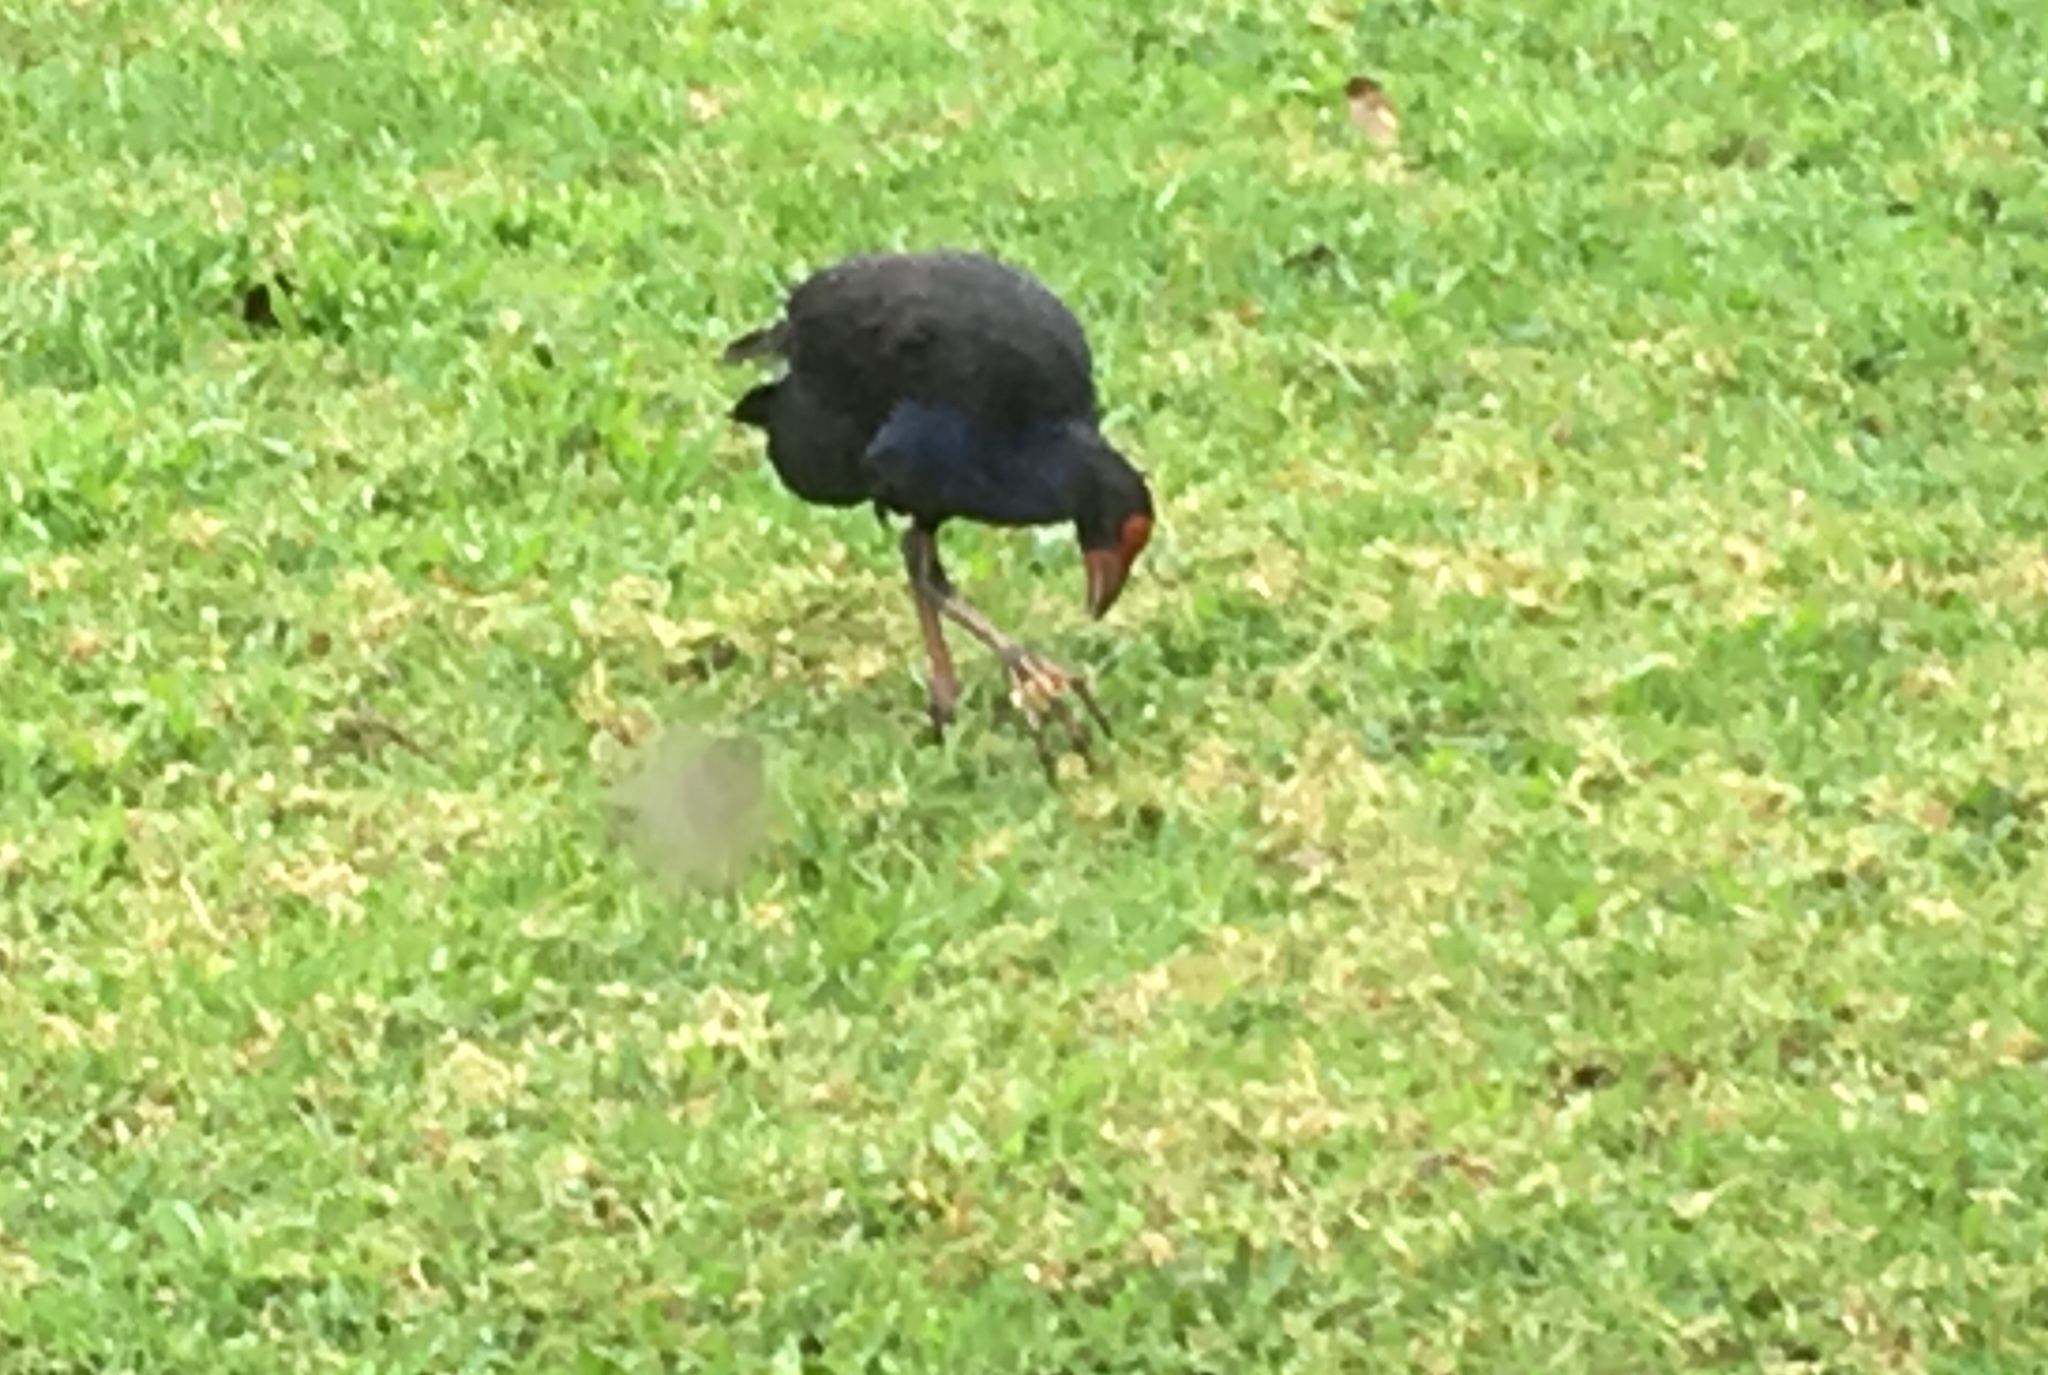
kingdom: Animalia
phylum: Chordata
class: Aves
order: Gruiformes
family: Rallidae
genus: Porphyrio
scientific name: Porphyrio melanotus
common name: Australasian swamphen
